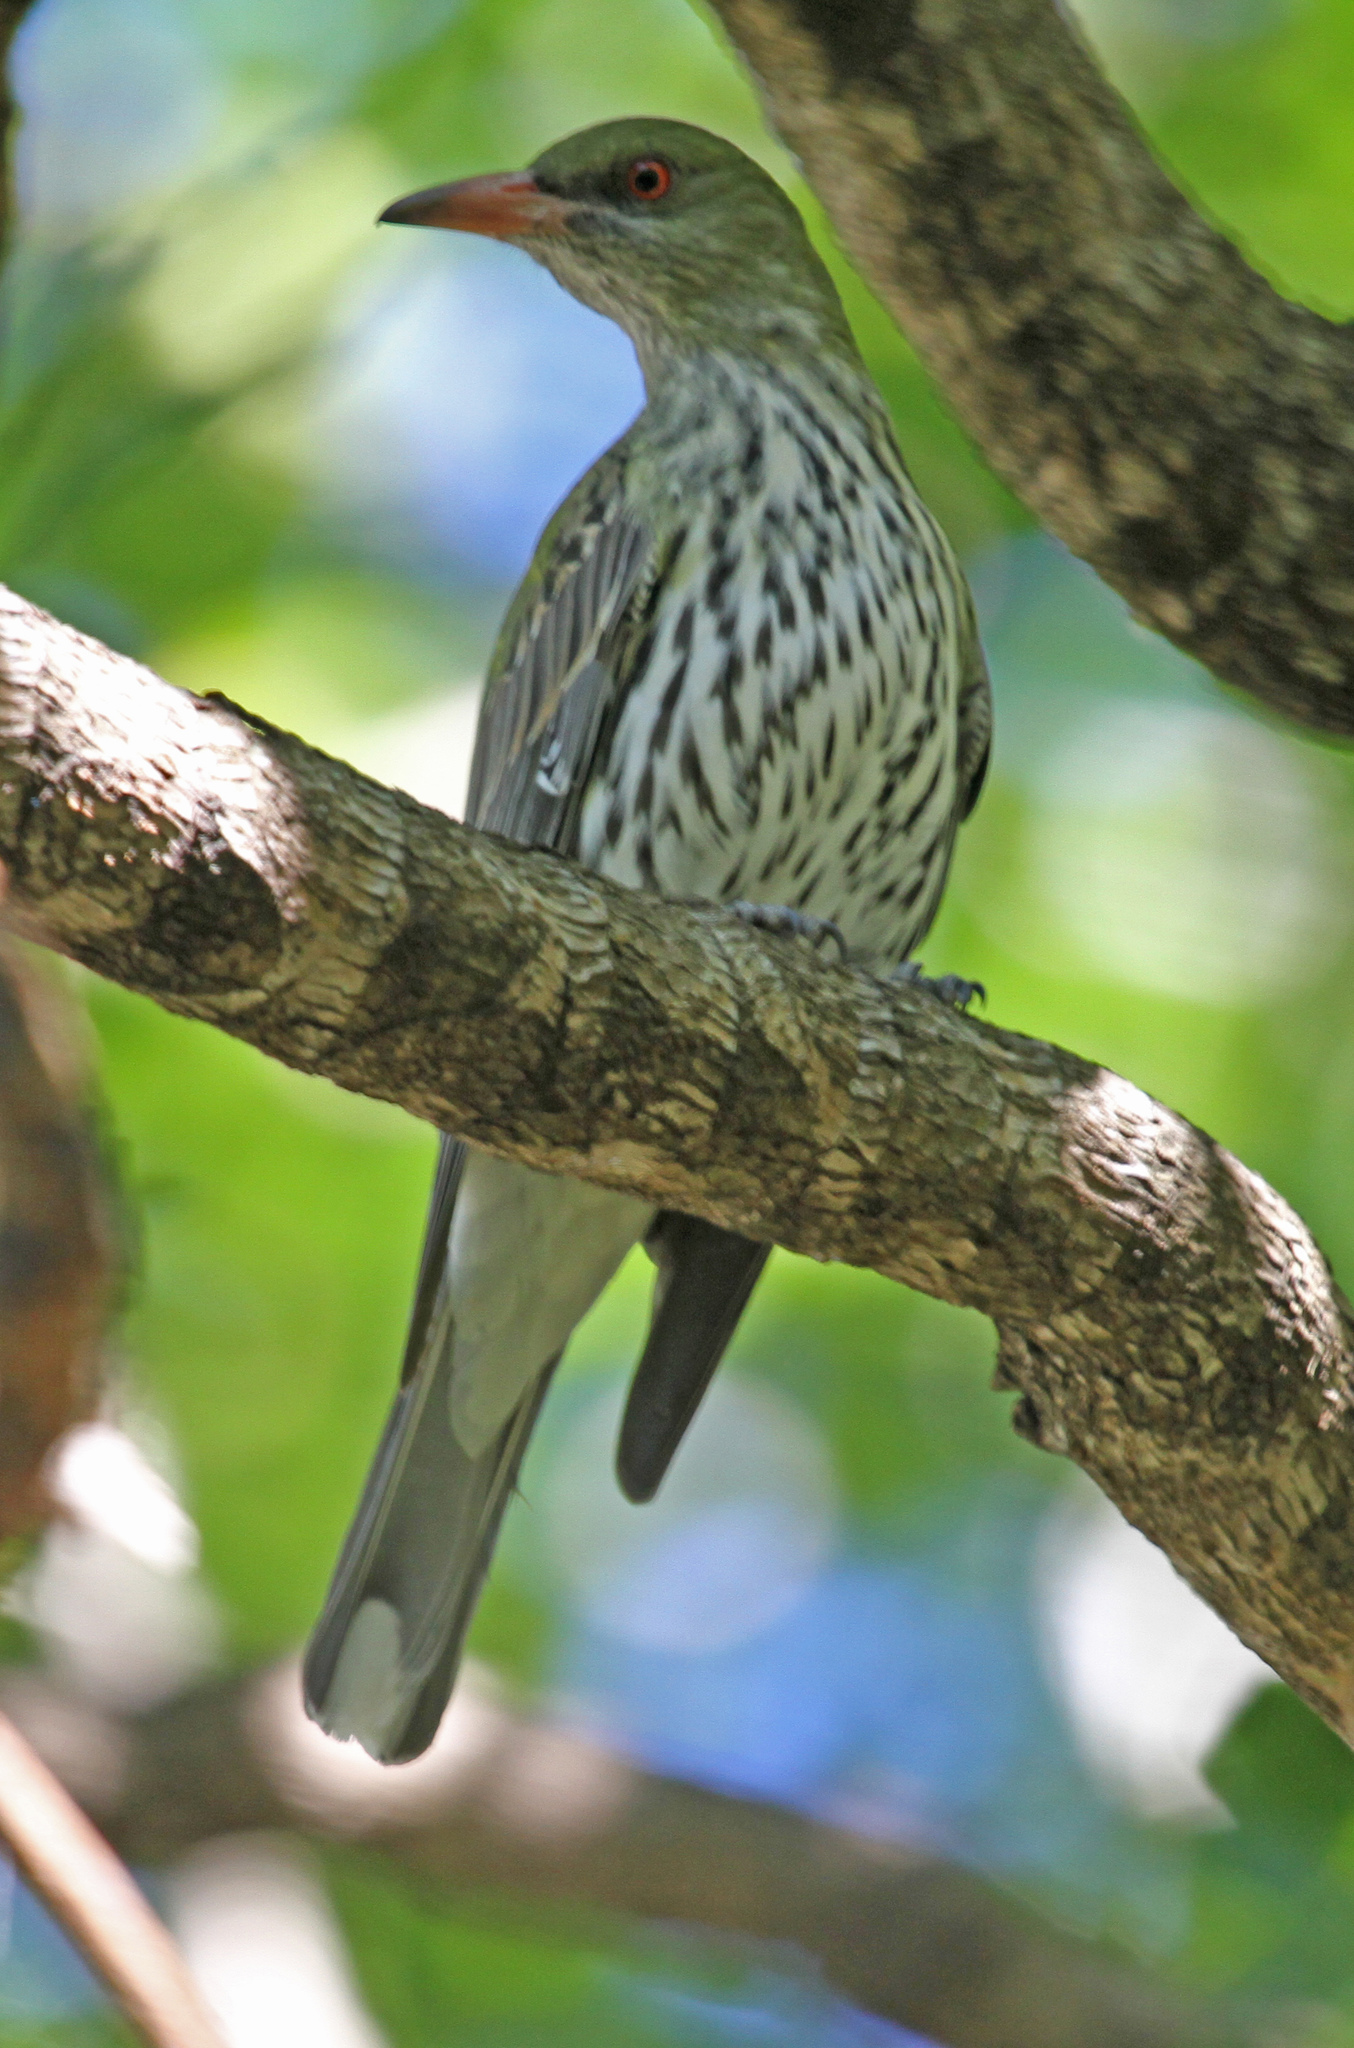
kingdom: Animalia
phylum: Chordata
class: Aves
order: Passeriformes
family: Oriolidae
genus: Oriolus
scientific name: Oriolus sagittatus
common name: Olive-backed oriole
